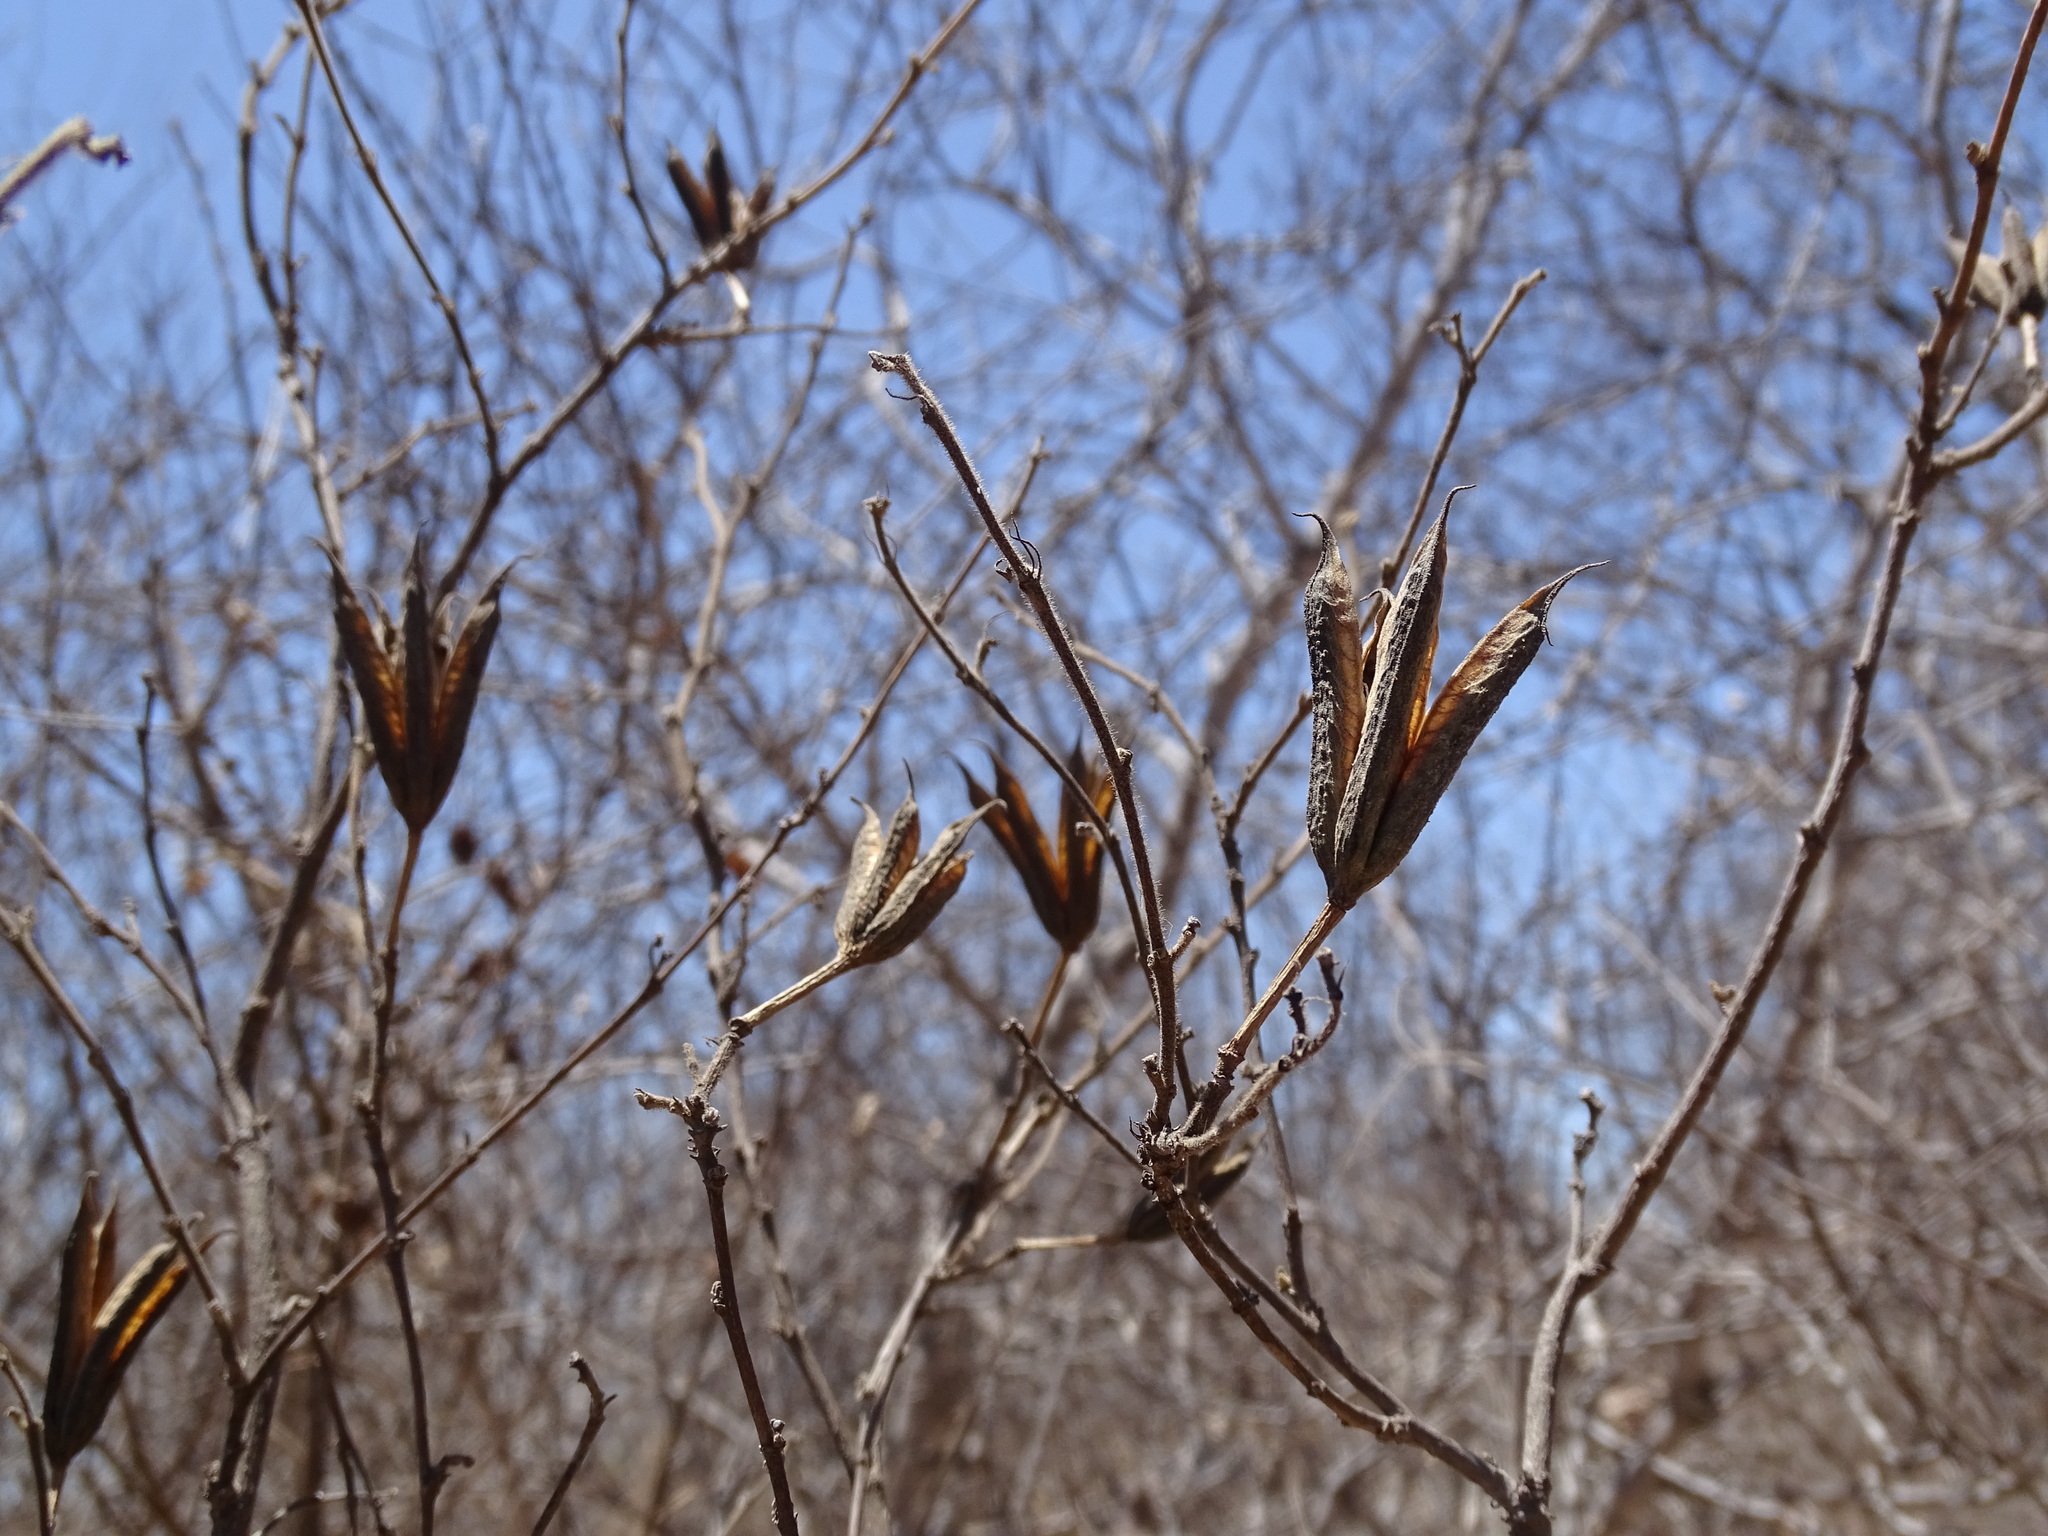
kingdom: Plantae
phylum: Tracheophyta
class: Magnoliopsida
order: Malvales
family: Malvaceae
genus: Helicteres
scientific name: Helicteres vegae
